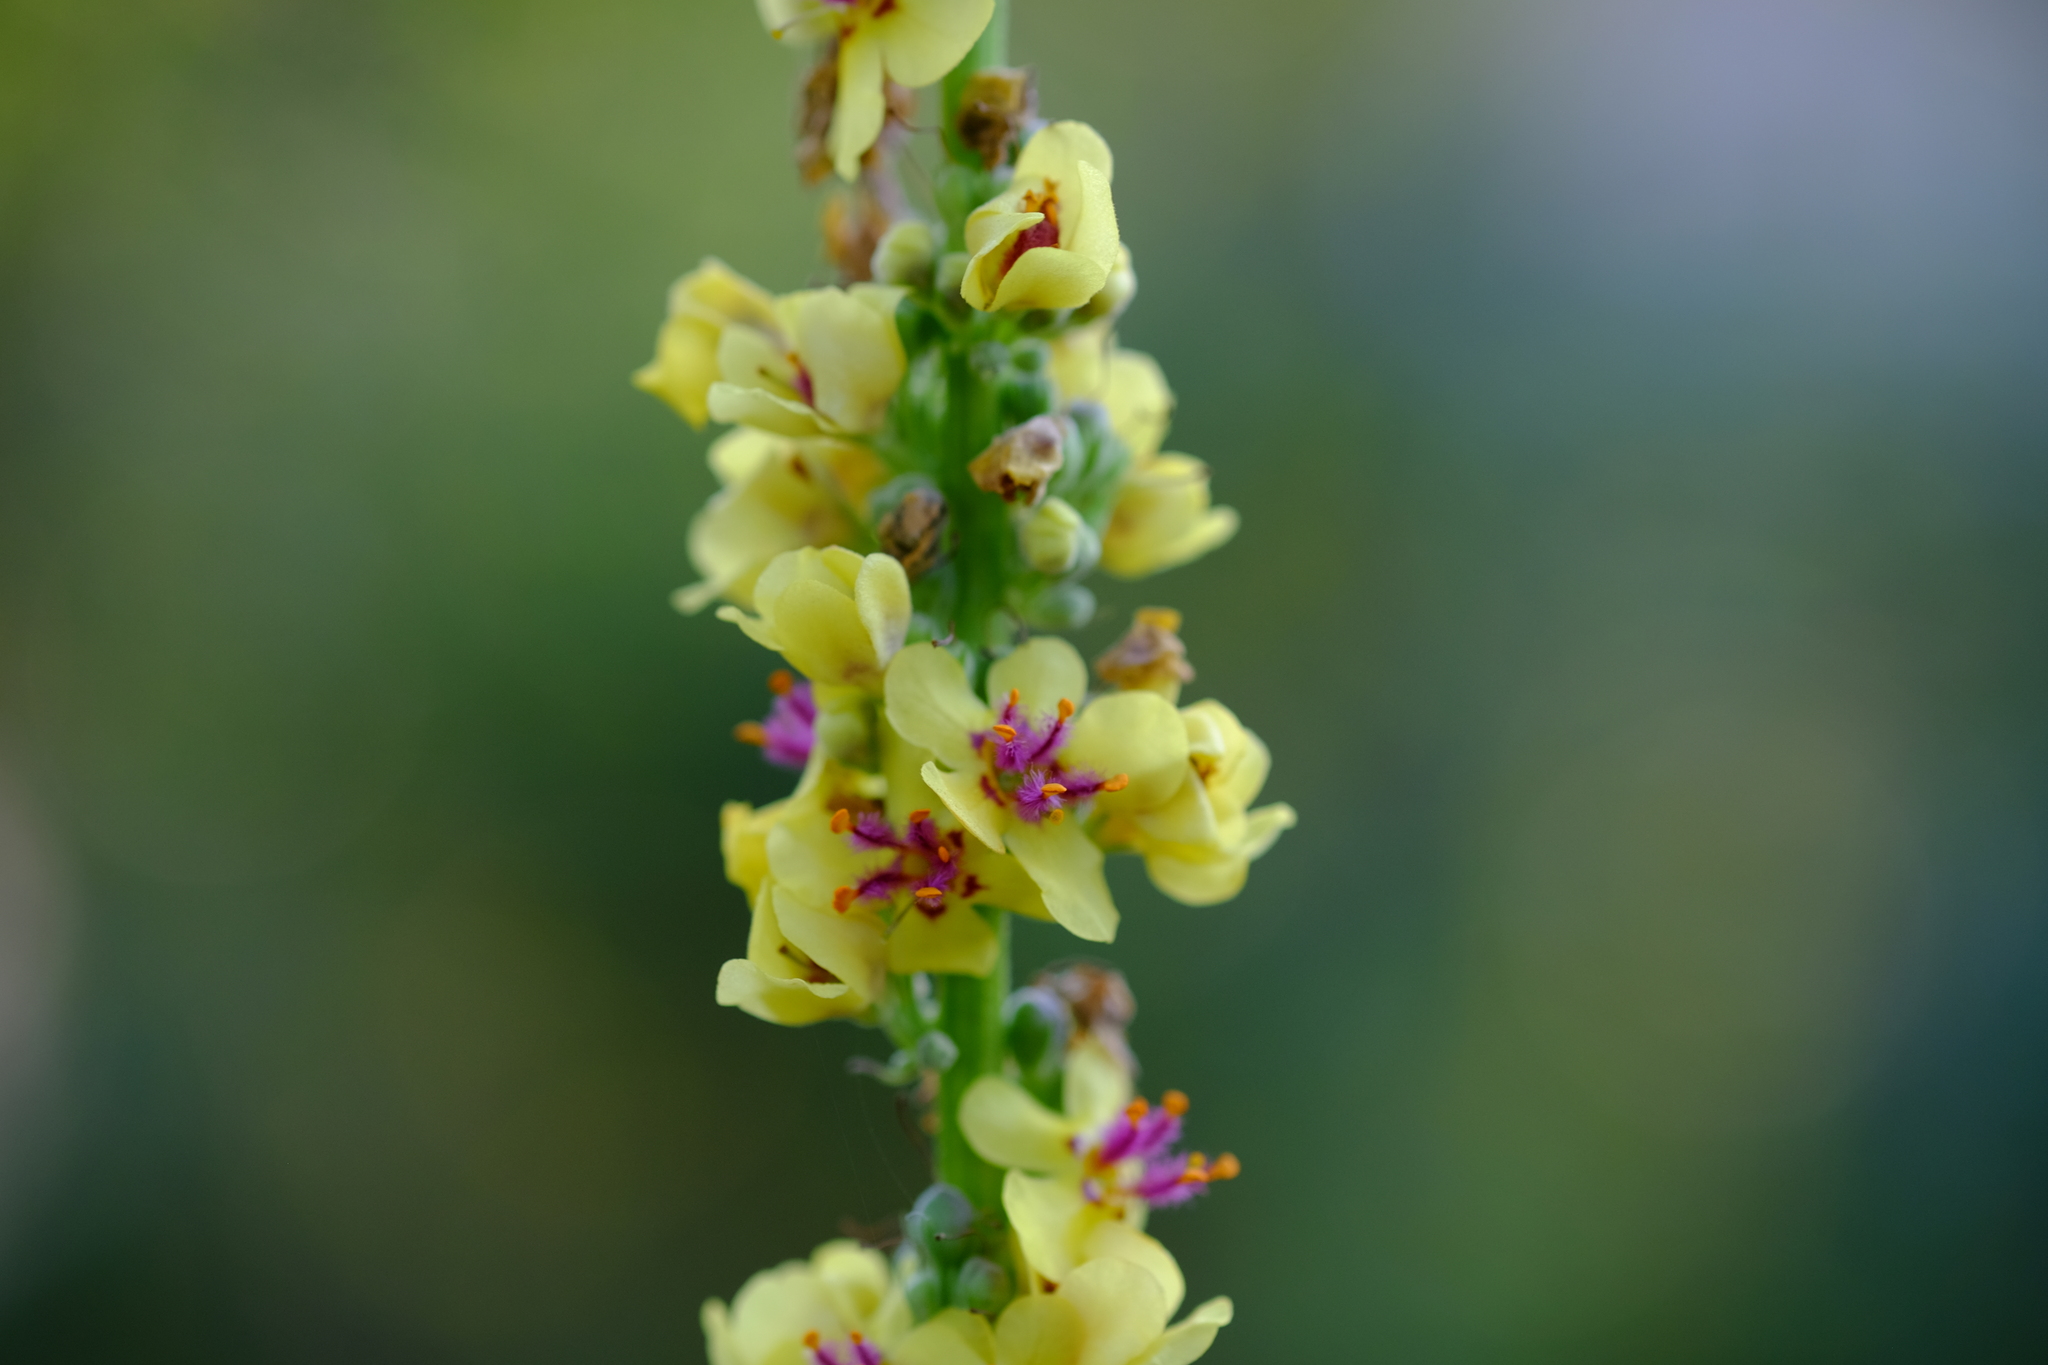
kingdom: Plantae
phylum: Tracheophyta
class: Magnoliopsida
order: Lamiales
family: Scrophulariaceae
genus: Verbascum
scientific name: Verbascum nigrum
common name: Dark mullein
